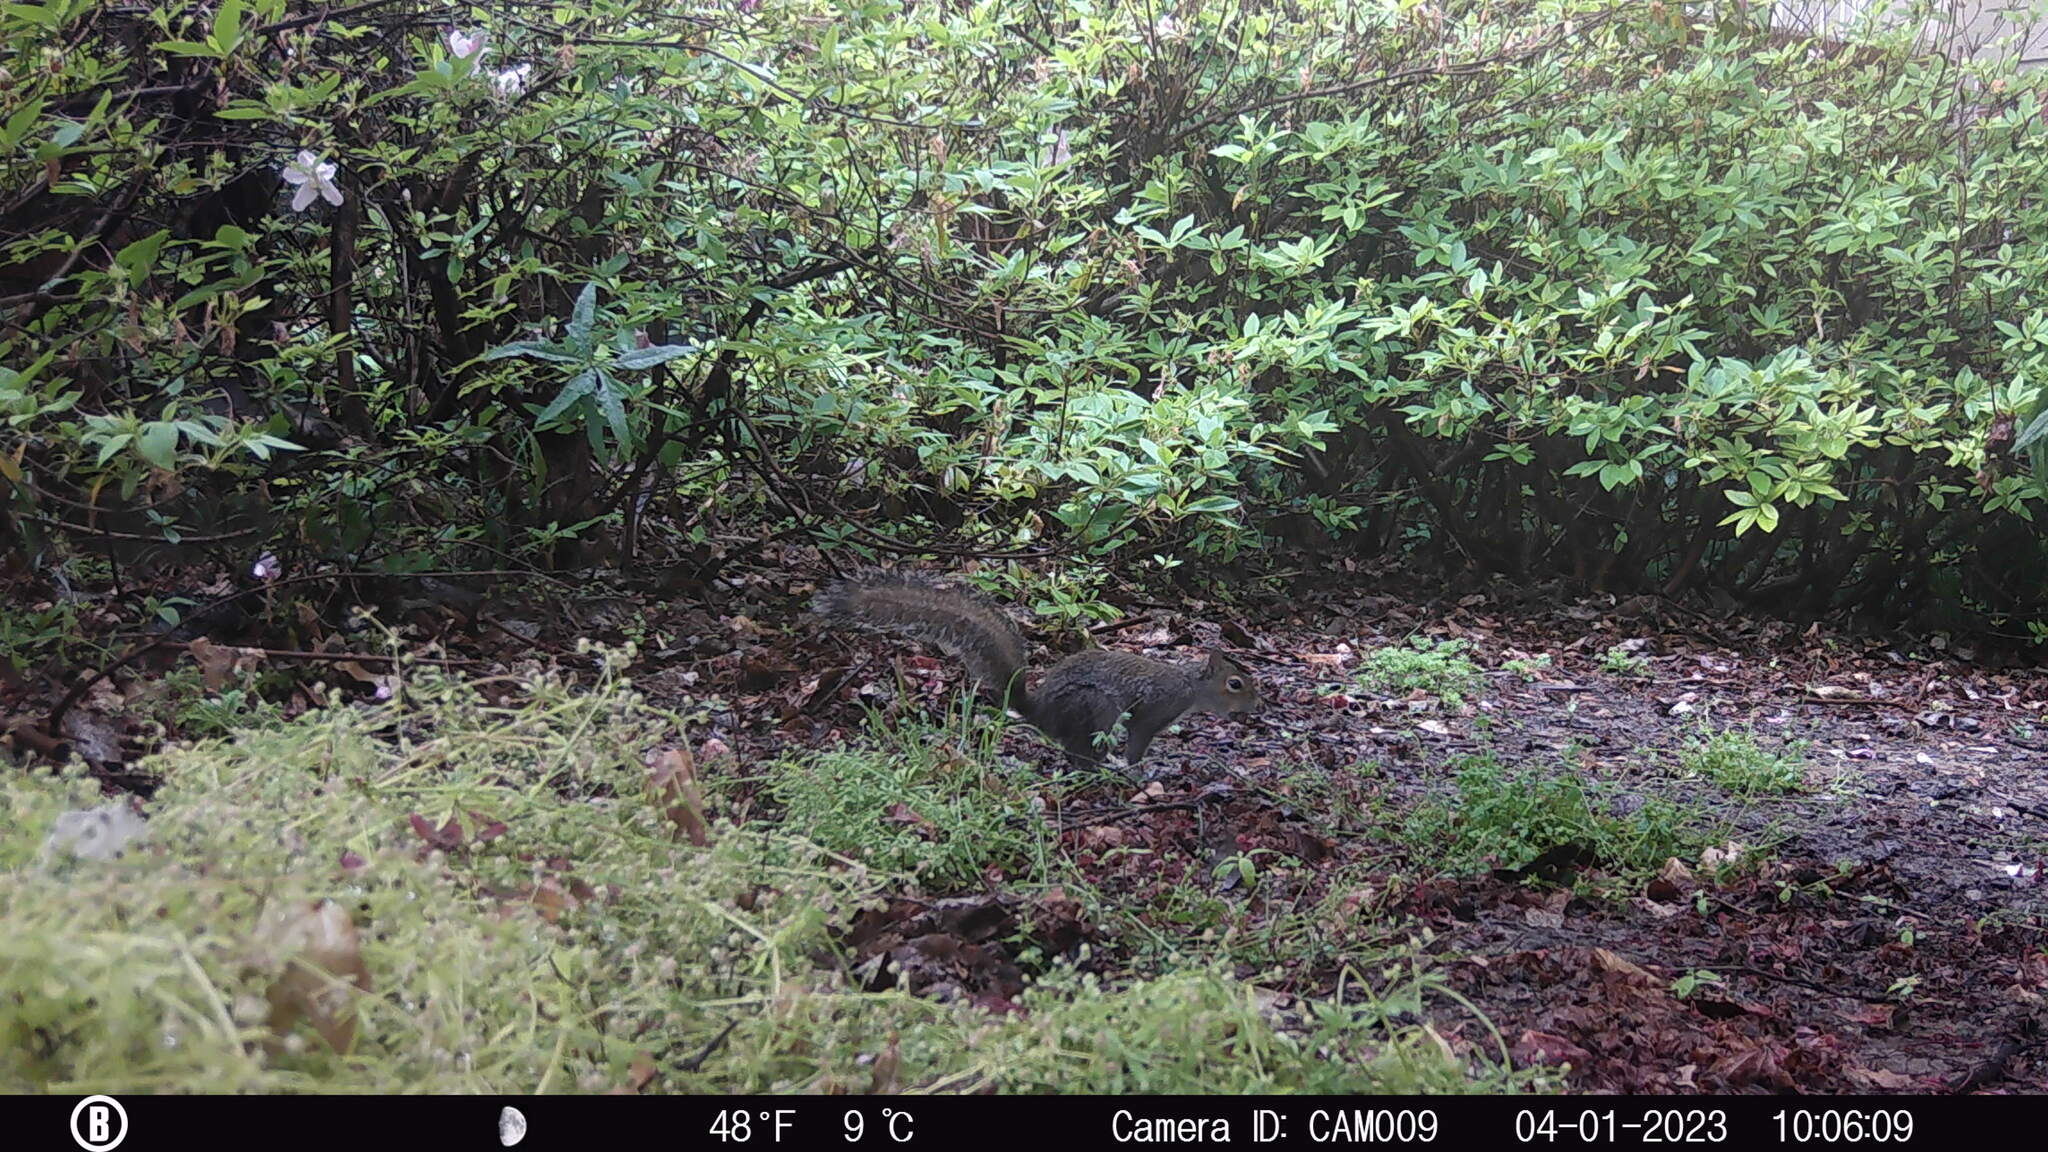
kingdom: Animalia
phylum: Chordata
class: Mammalia
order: Rodentia
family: Sciuridae
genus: Sciurus
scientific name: Sciurus carolinensis
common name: Eastern gray squirrel
